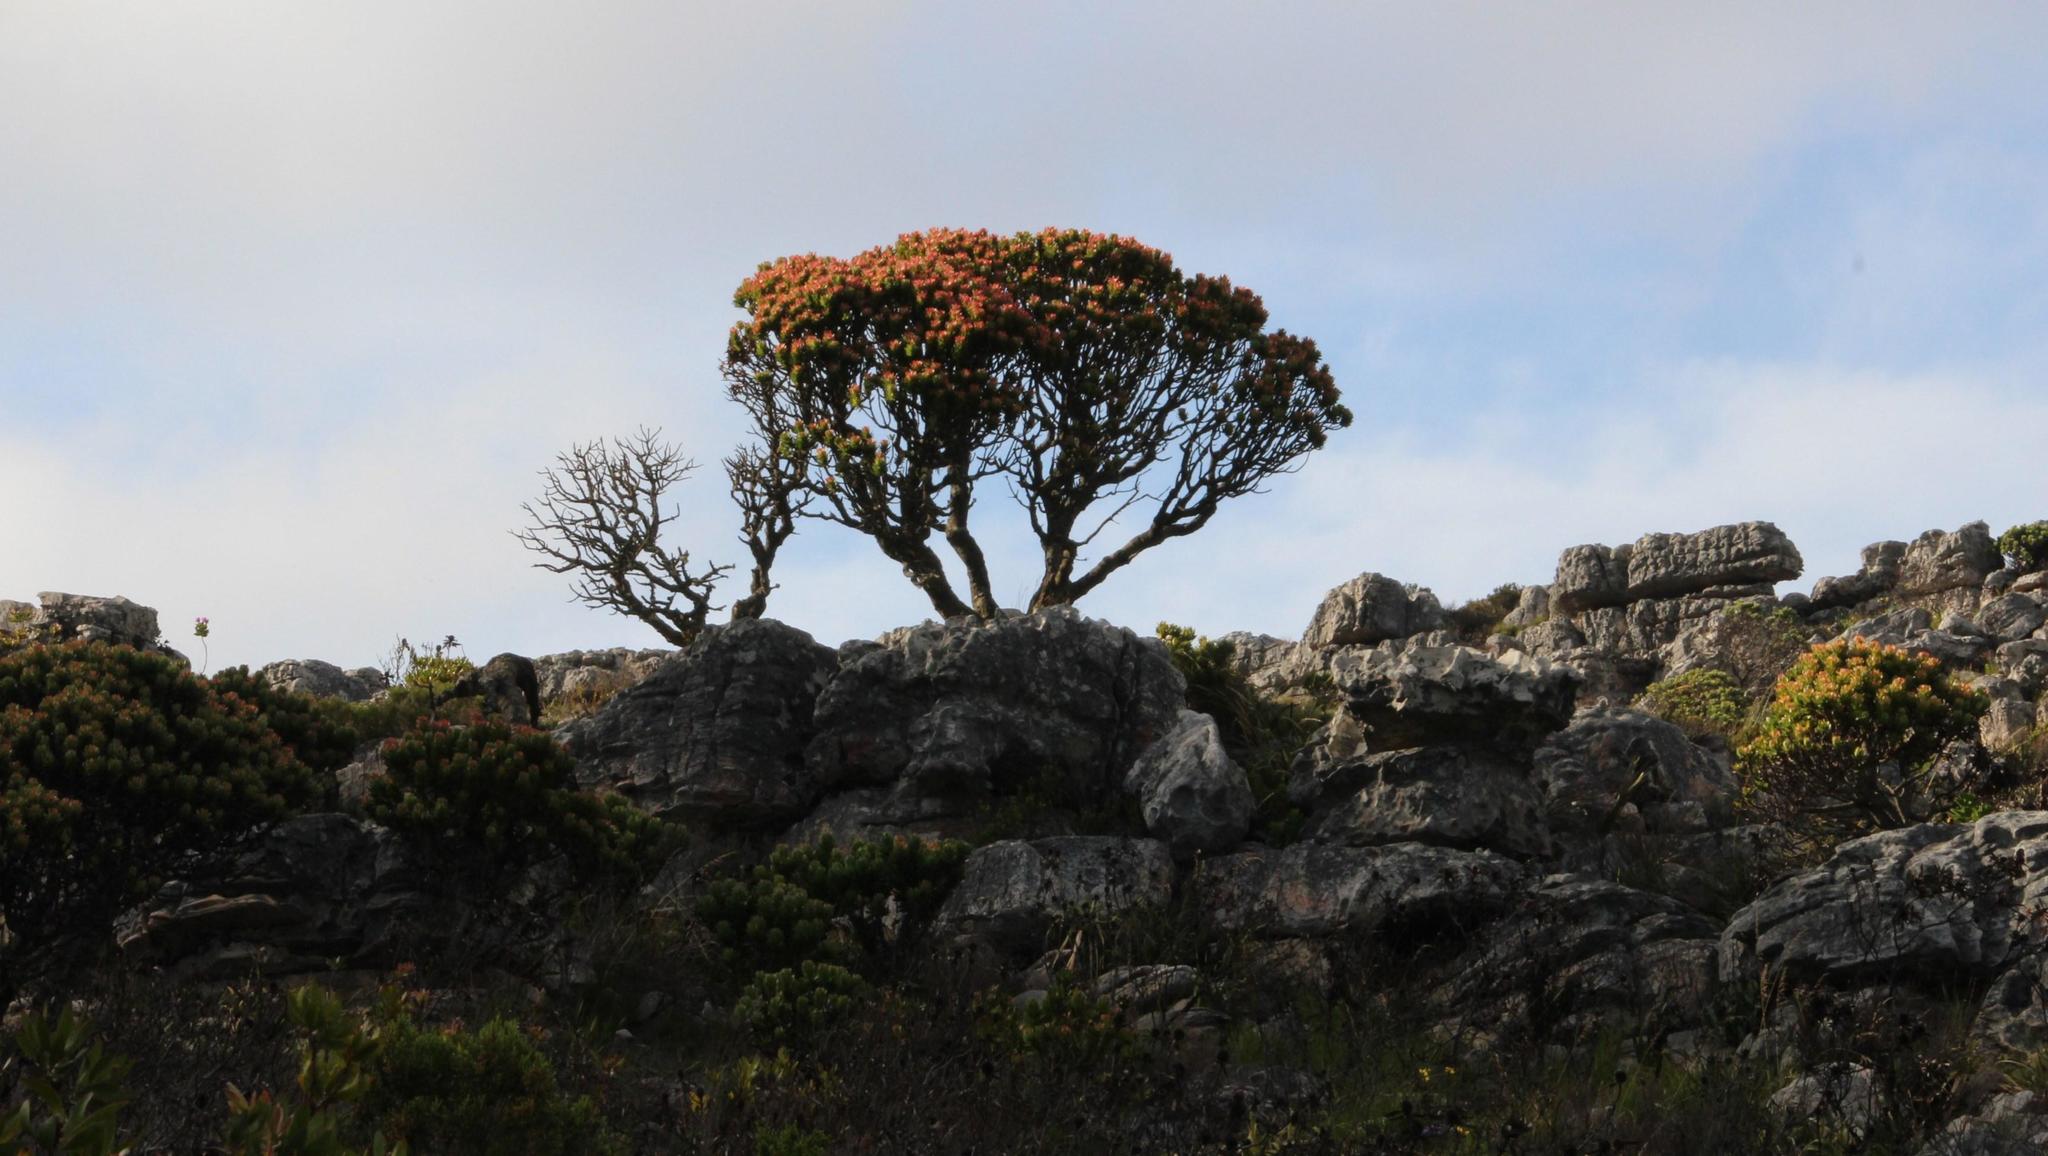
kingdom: Plantae
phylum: Tracheophyta
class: Magnoliopsida
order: Proteales
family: Proteaceae
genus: Mimetes
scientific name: Mimetes fimbriifolius
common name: Fringed bottlebrush
